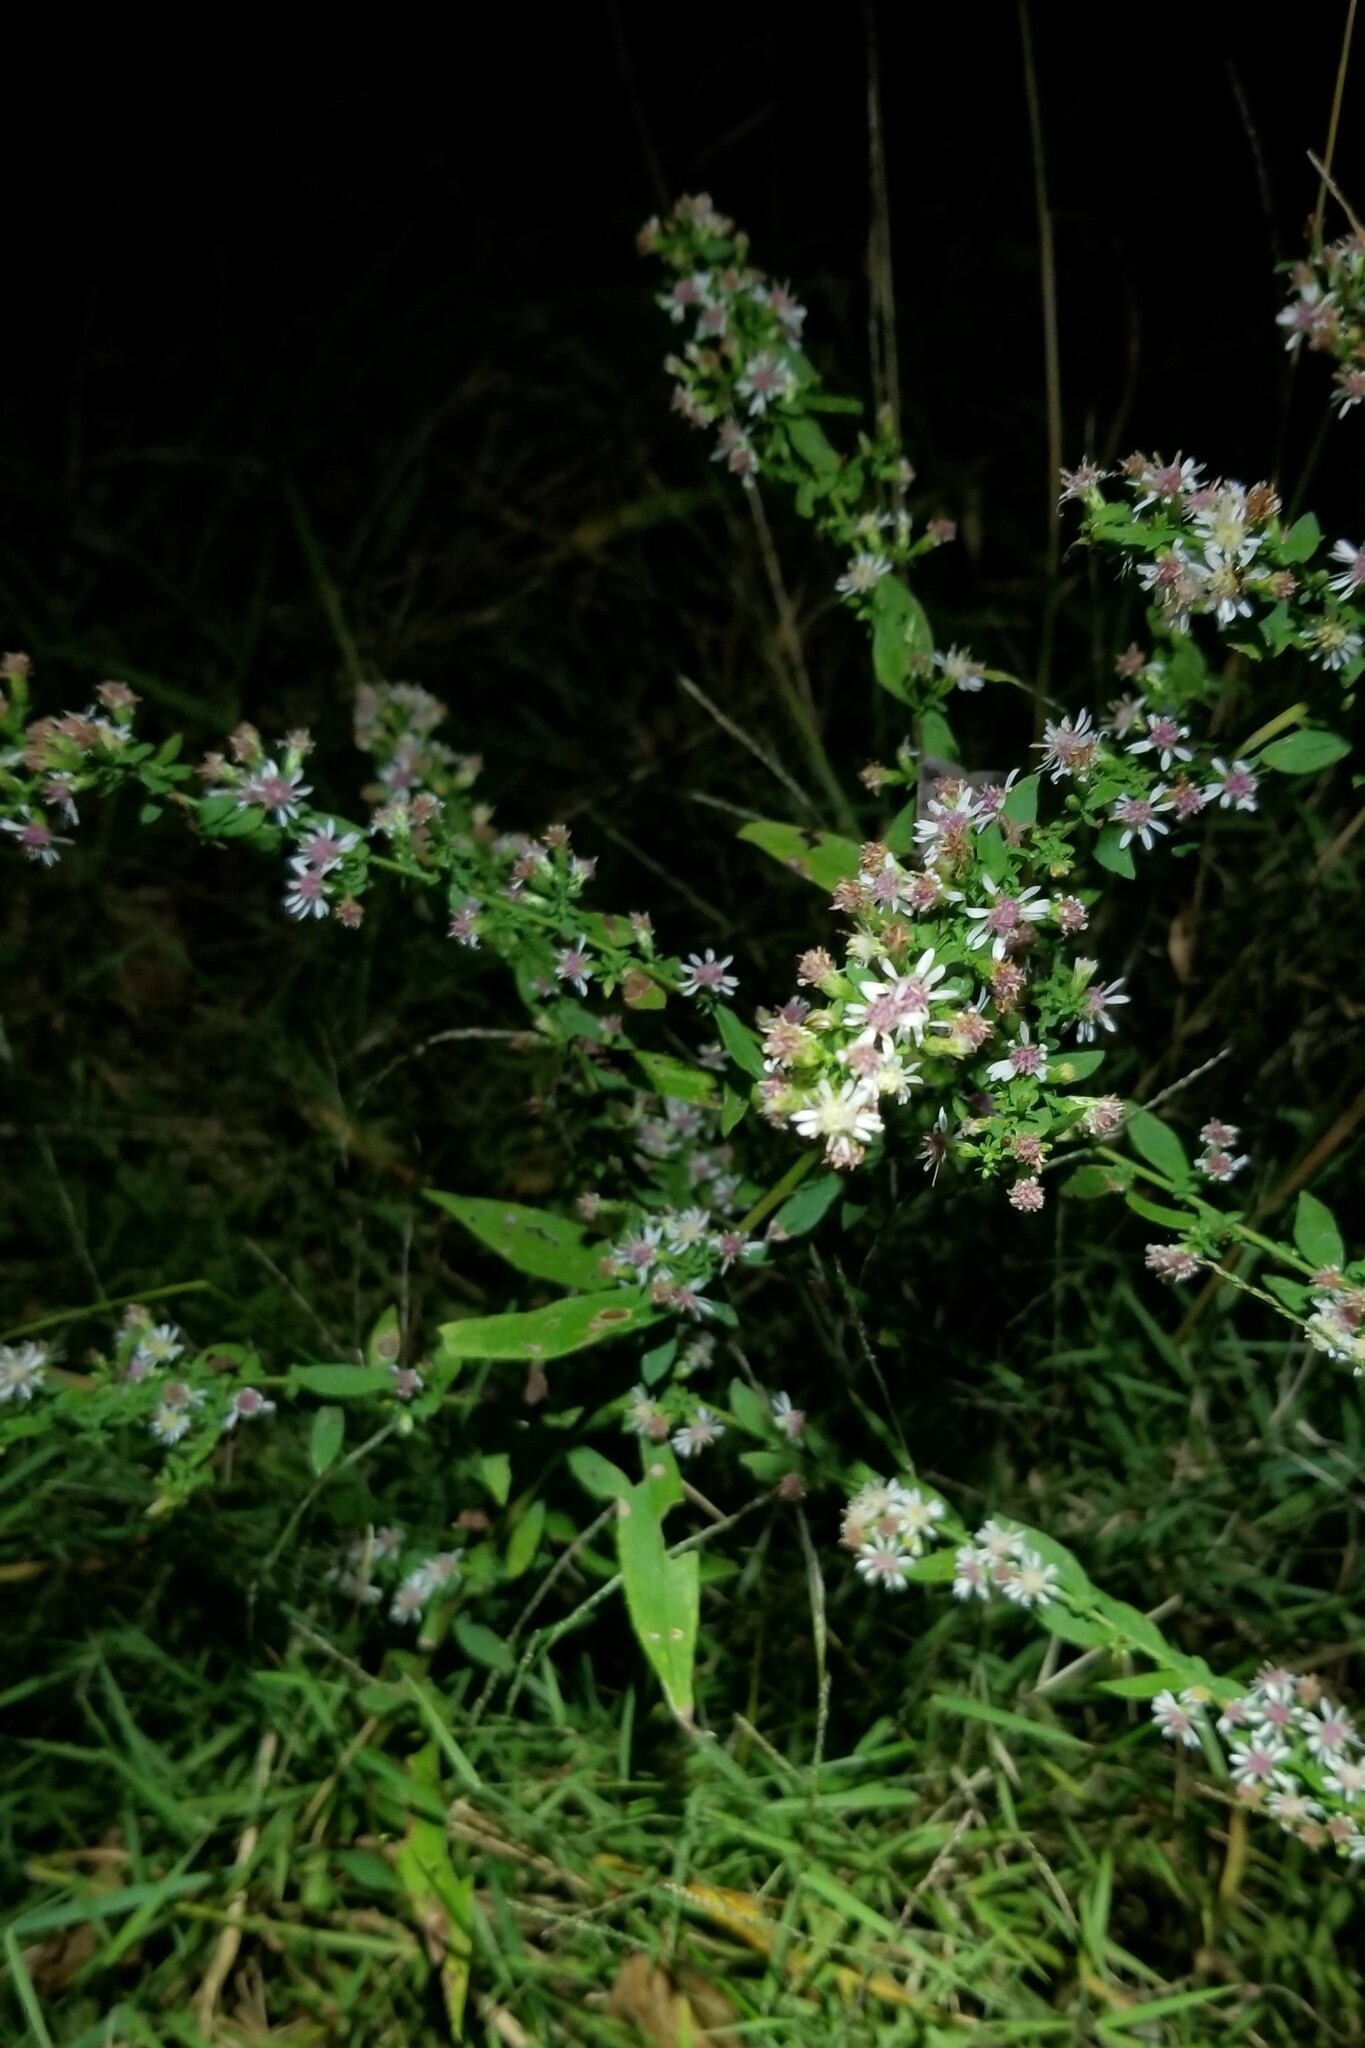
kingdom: Plantae
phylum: Tracheophyta
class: Magnoliopsida
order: Asterales
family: Asteraceae
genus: Symphyotrichum
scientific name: Symphyotrichum lateriflorum
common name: Calico aster
